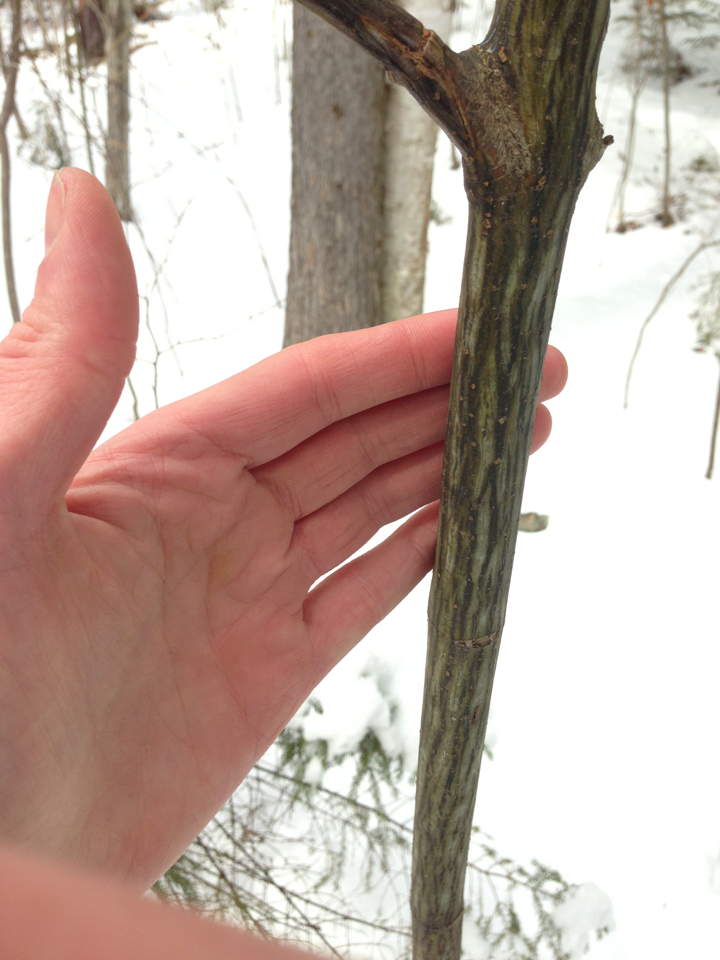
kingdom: Plantae
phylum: Tracheophyta
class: Magnoliopsida
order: Sapindales
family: Sapindaceae
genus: Acer
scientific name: Acer pensylvanicum
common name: Moosewood
